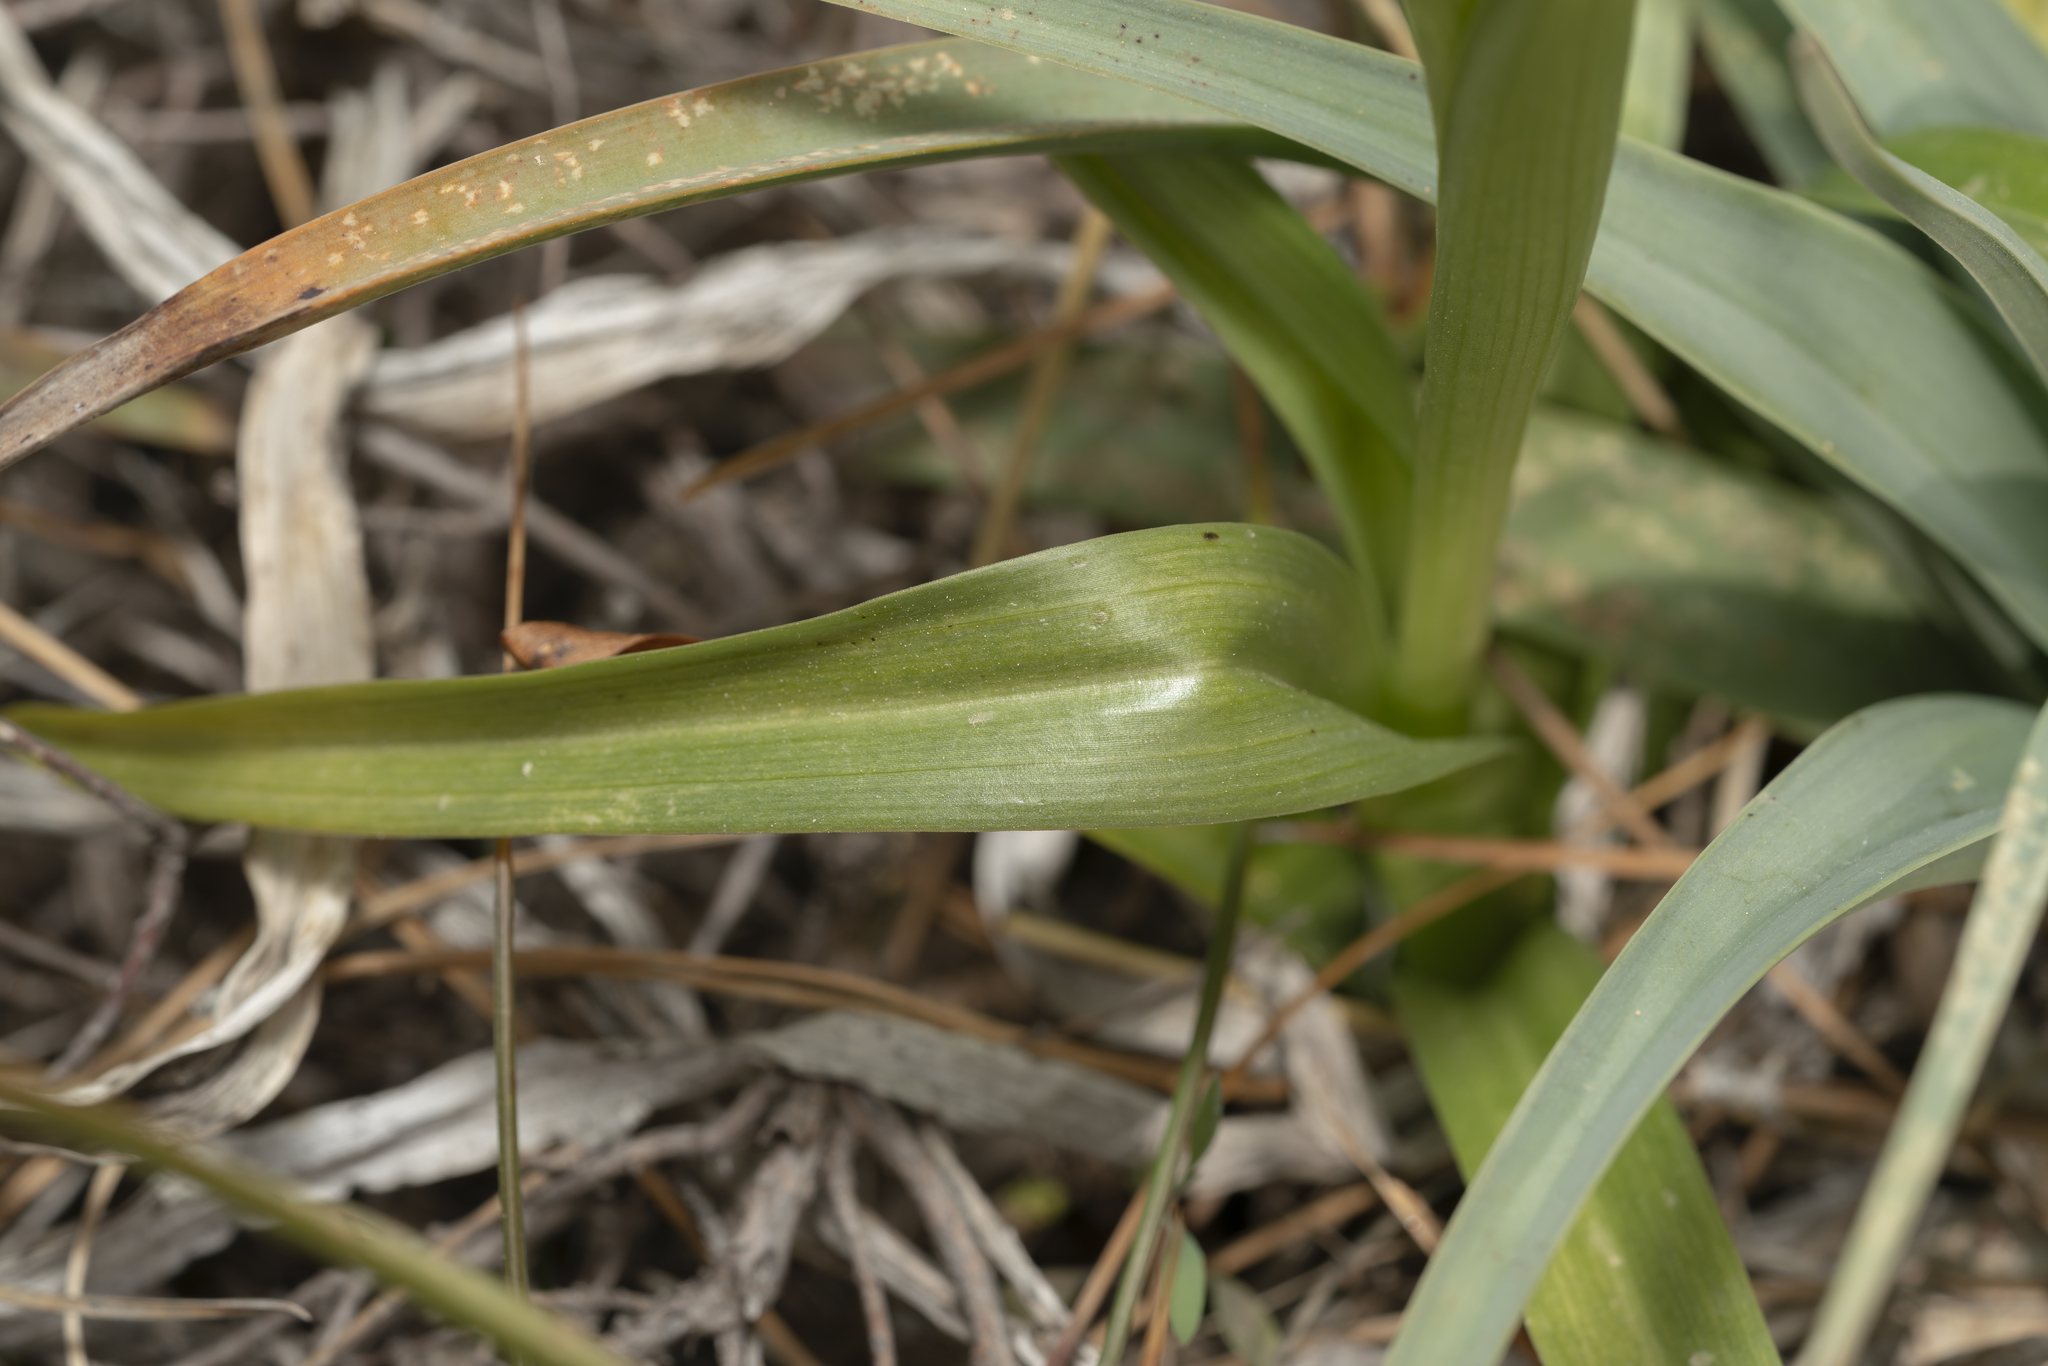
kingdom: Plantae
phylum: Tracheophyta
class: Liliopsida
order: Asparagales
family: Orchidaceae
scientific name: Orchidaceae
